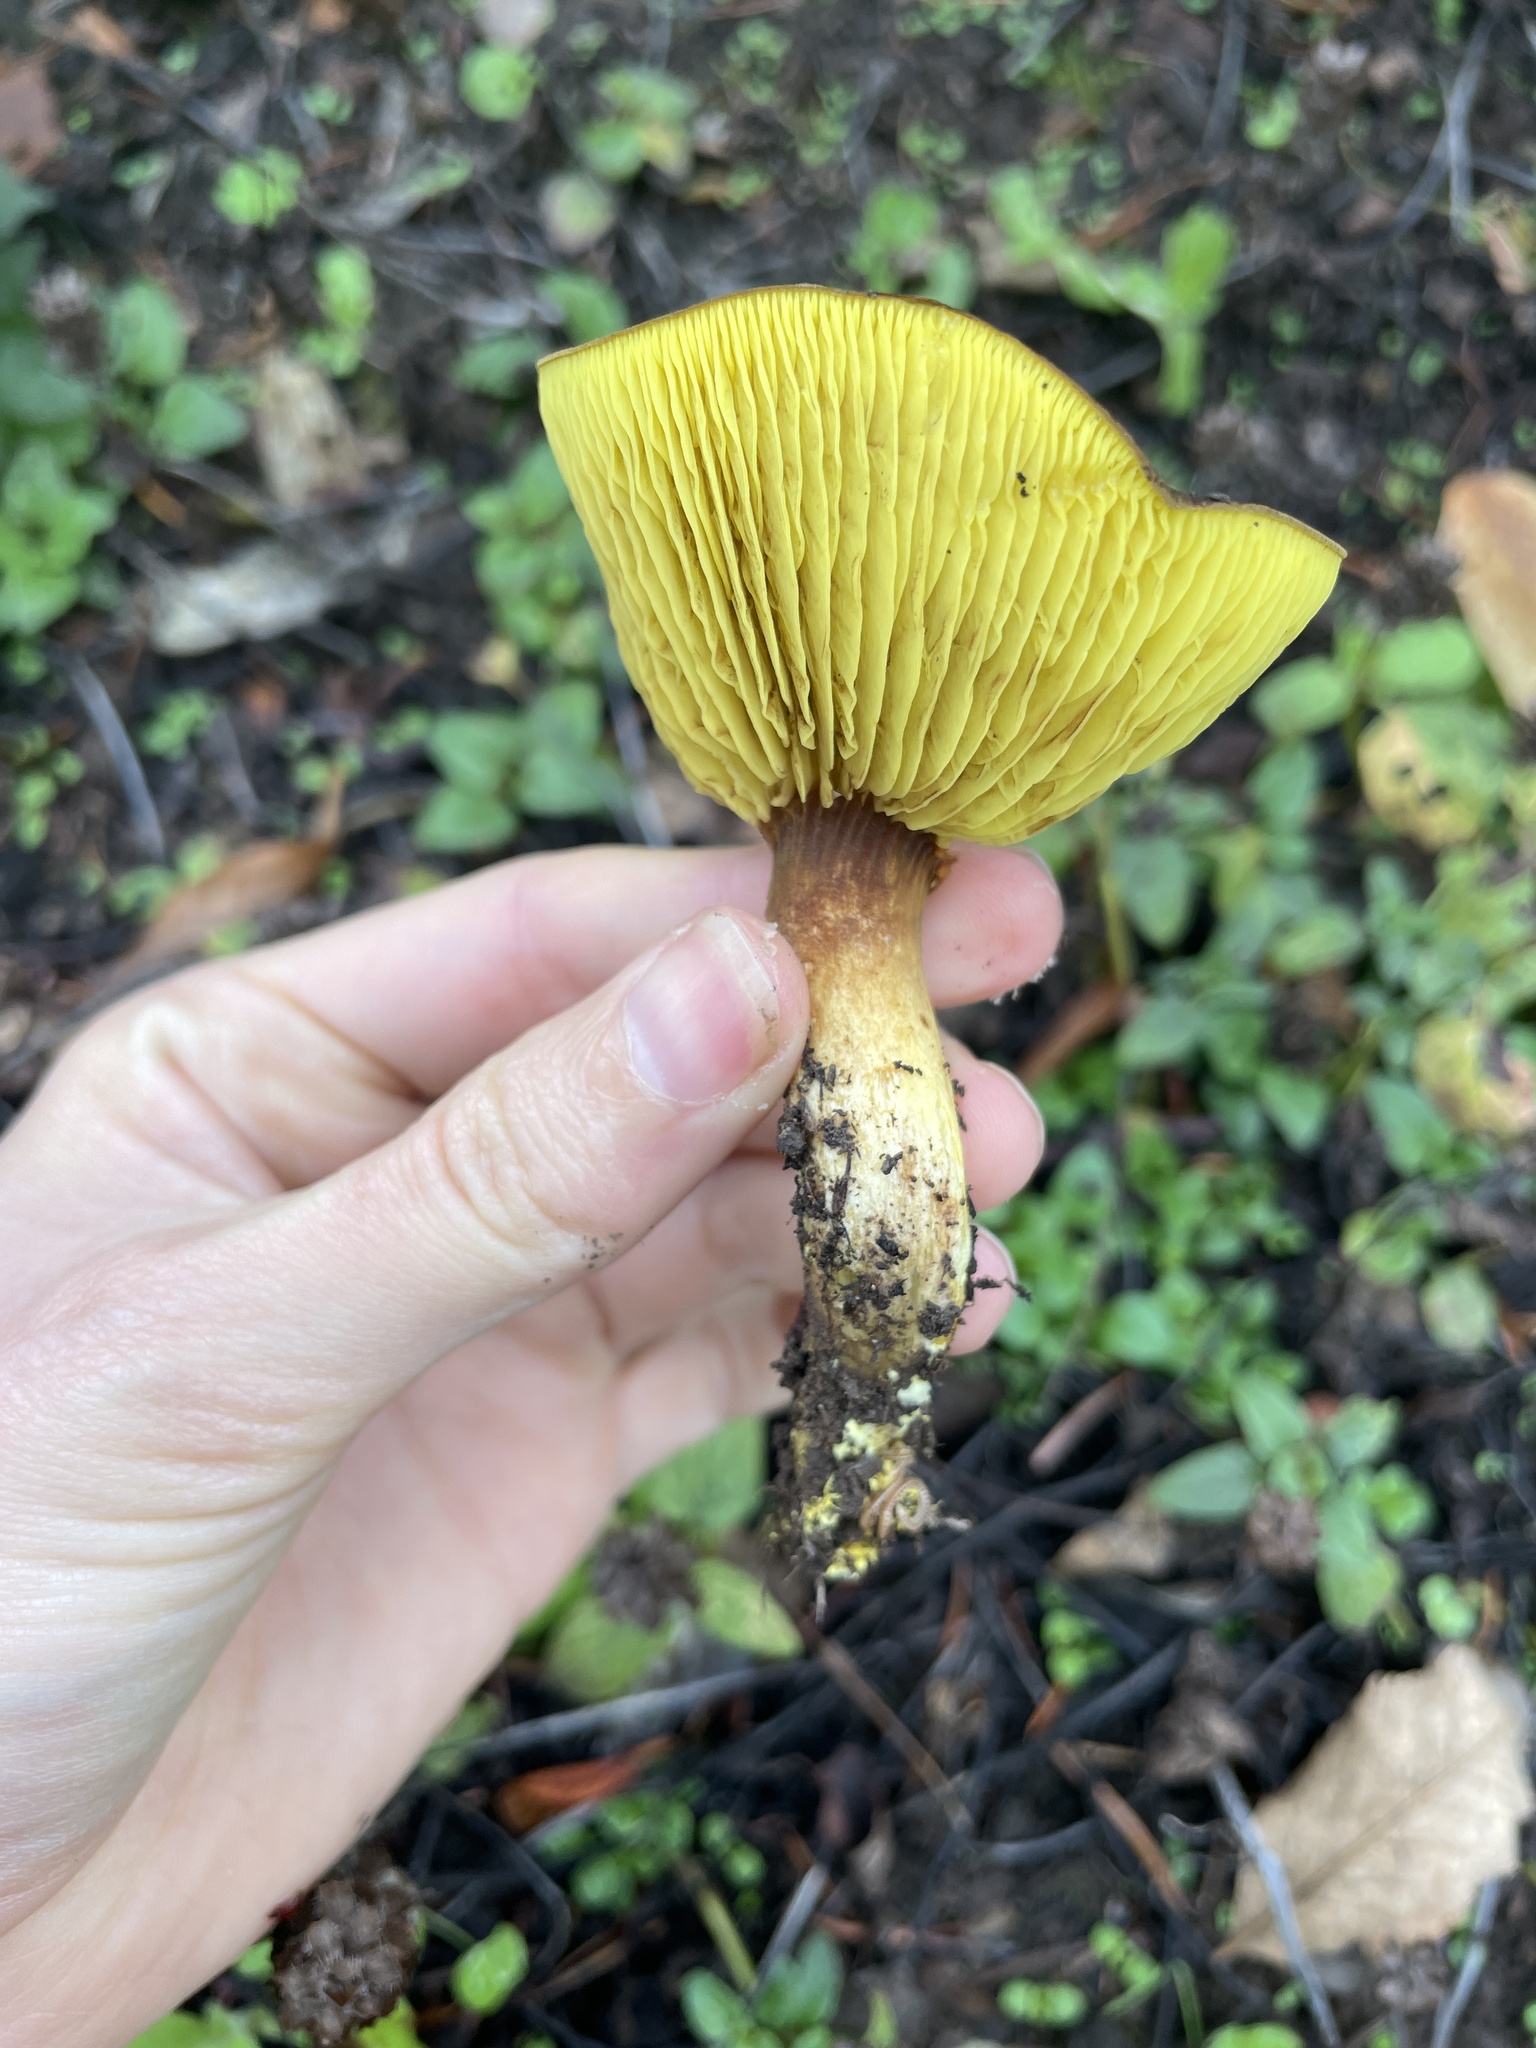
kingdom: Fungi
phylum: Basidiomycota
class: Agaricomycetes
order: Boletales
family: Boletaceae
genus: Phylloporus
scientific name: Phylloporus arenicola
